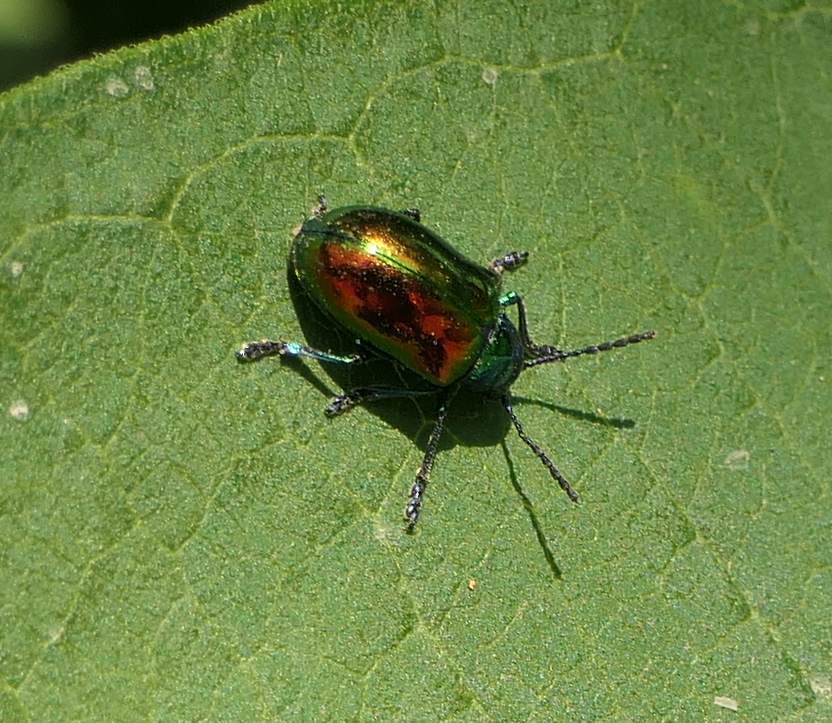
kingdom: Animalia
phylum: Arthropoda
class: Insecta
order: Coleoptera
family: Chrysomelidae
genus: Chrysochus
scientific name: Chrysochus auratus
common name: Dogbane leaf beetle
